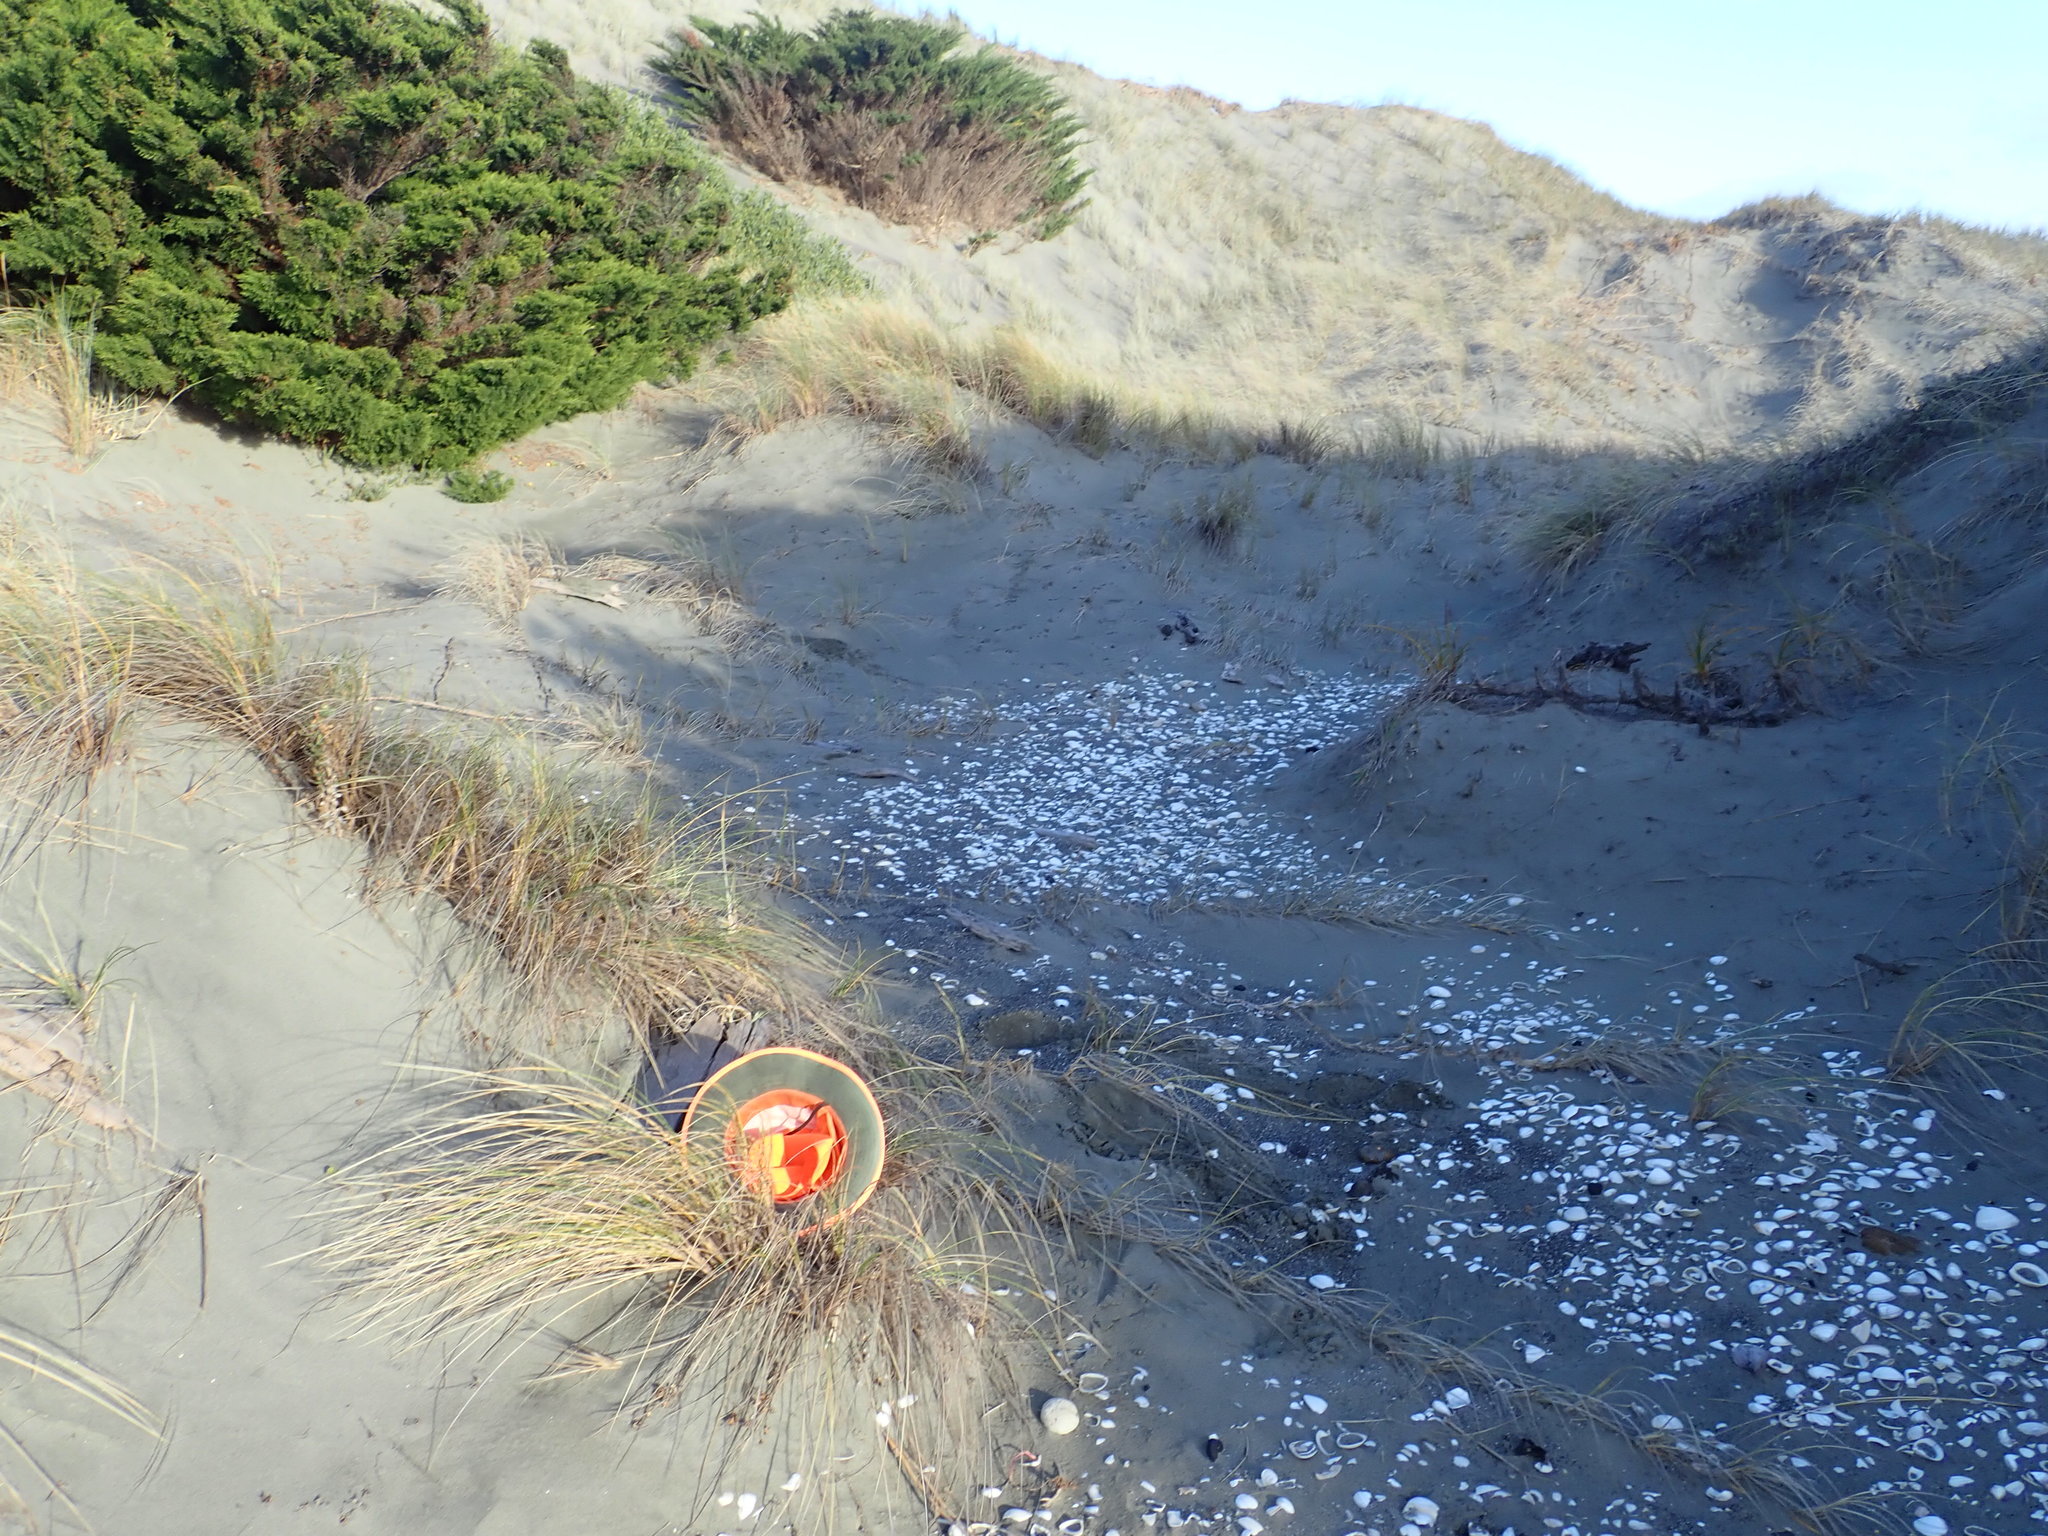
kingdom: Animalia
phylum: Arthropoda
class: Arachnida
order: Araneae
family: Theridiidae
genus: Latrodectus
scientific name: Latrodectus katipo
